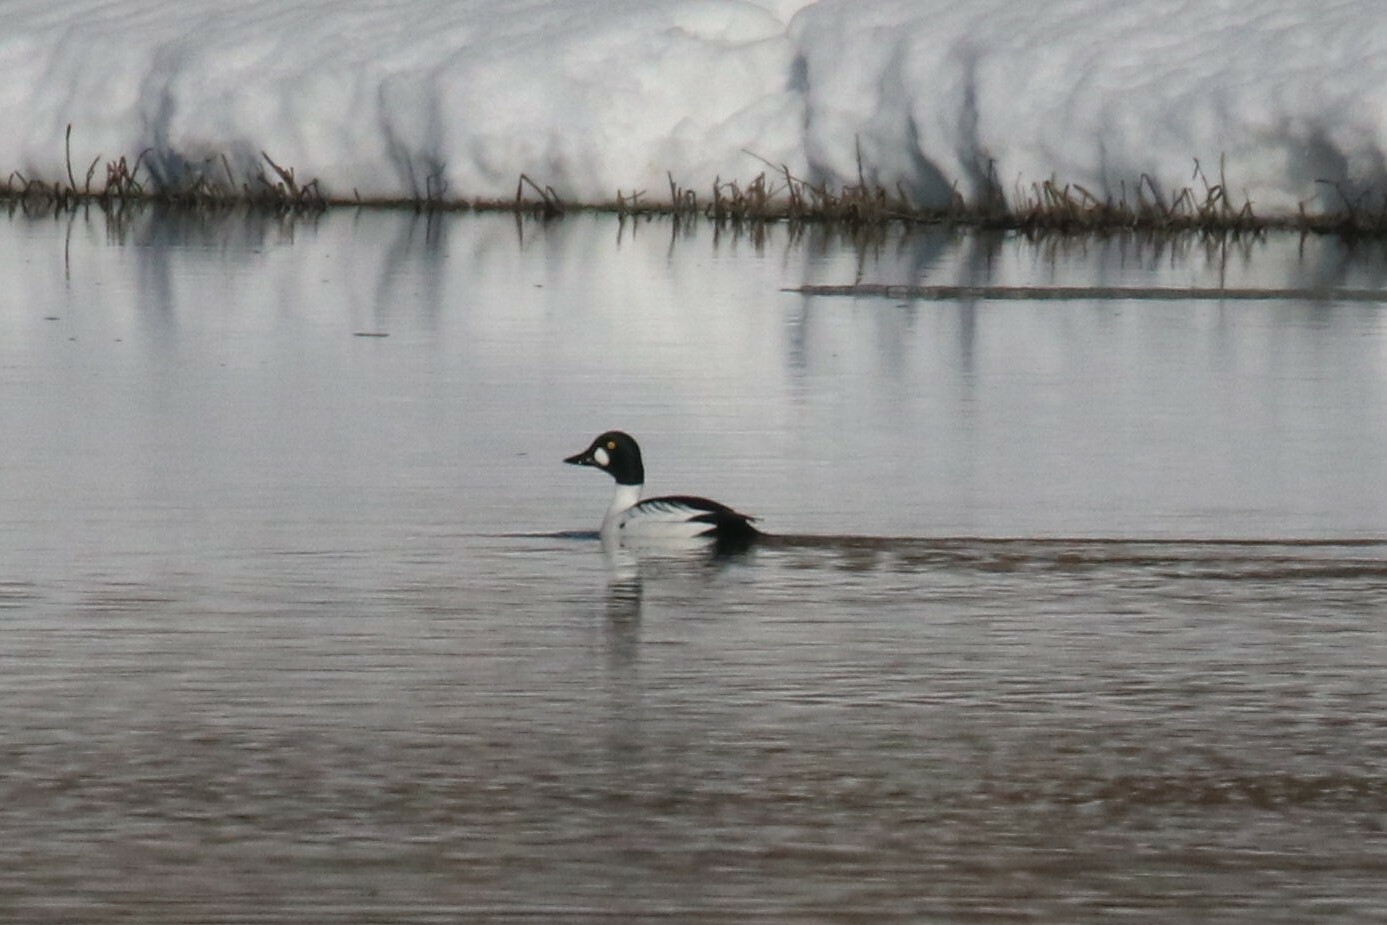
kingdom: Animalia
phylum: Chordata
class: Aves
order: Anseriformes
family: Anatidae
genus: Bucephala
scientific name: Bucephala clangula
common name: Common goldeneye
